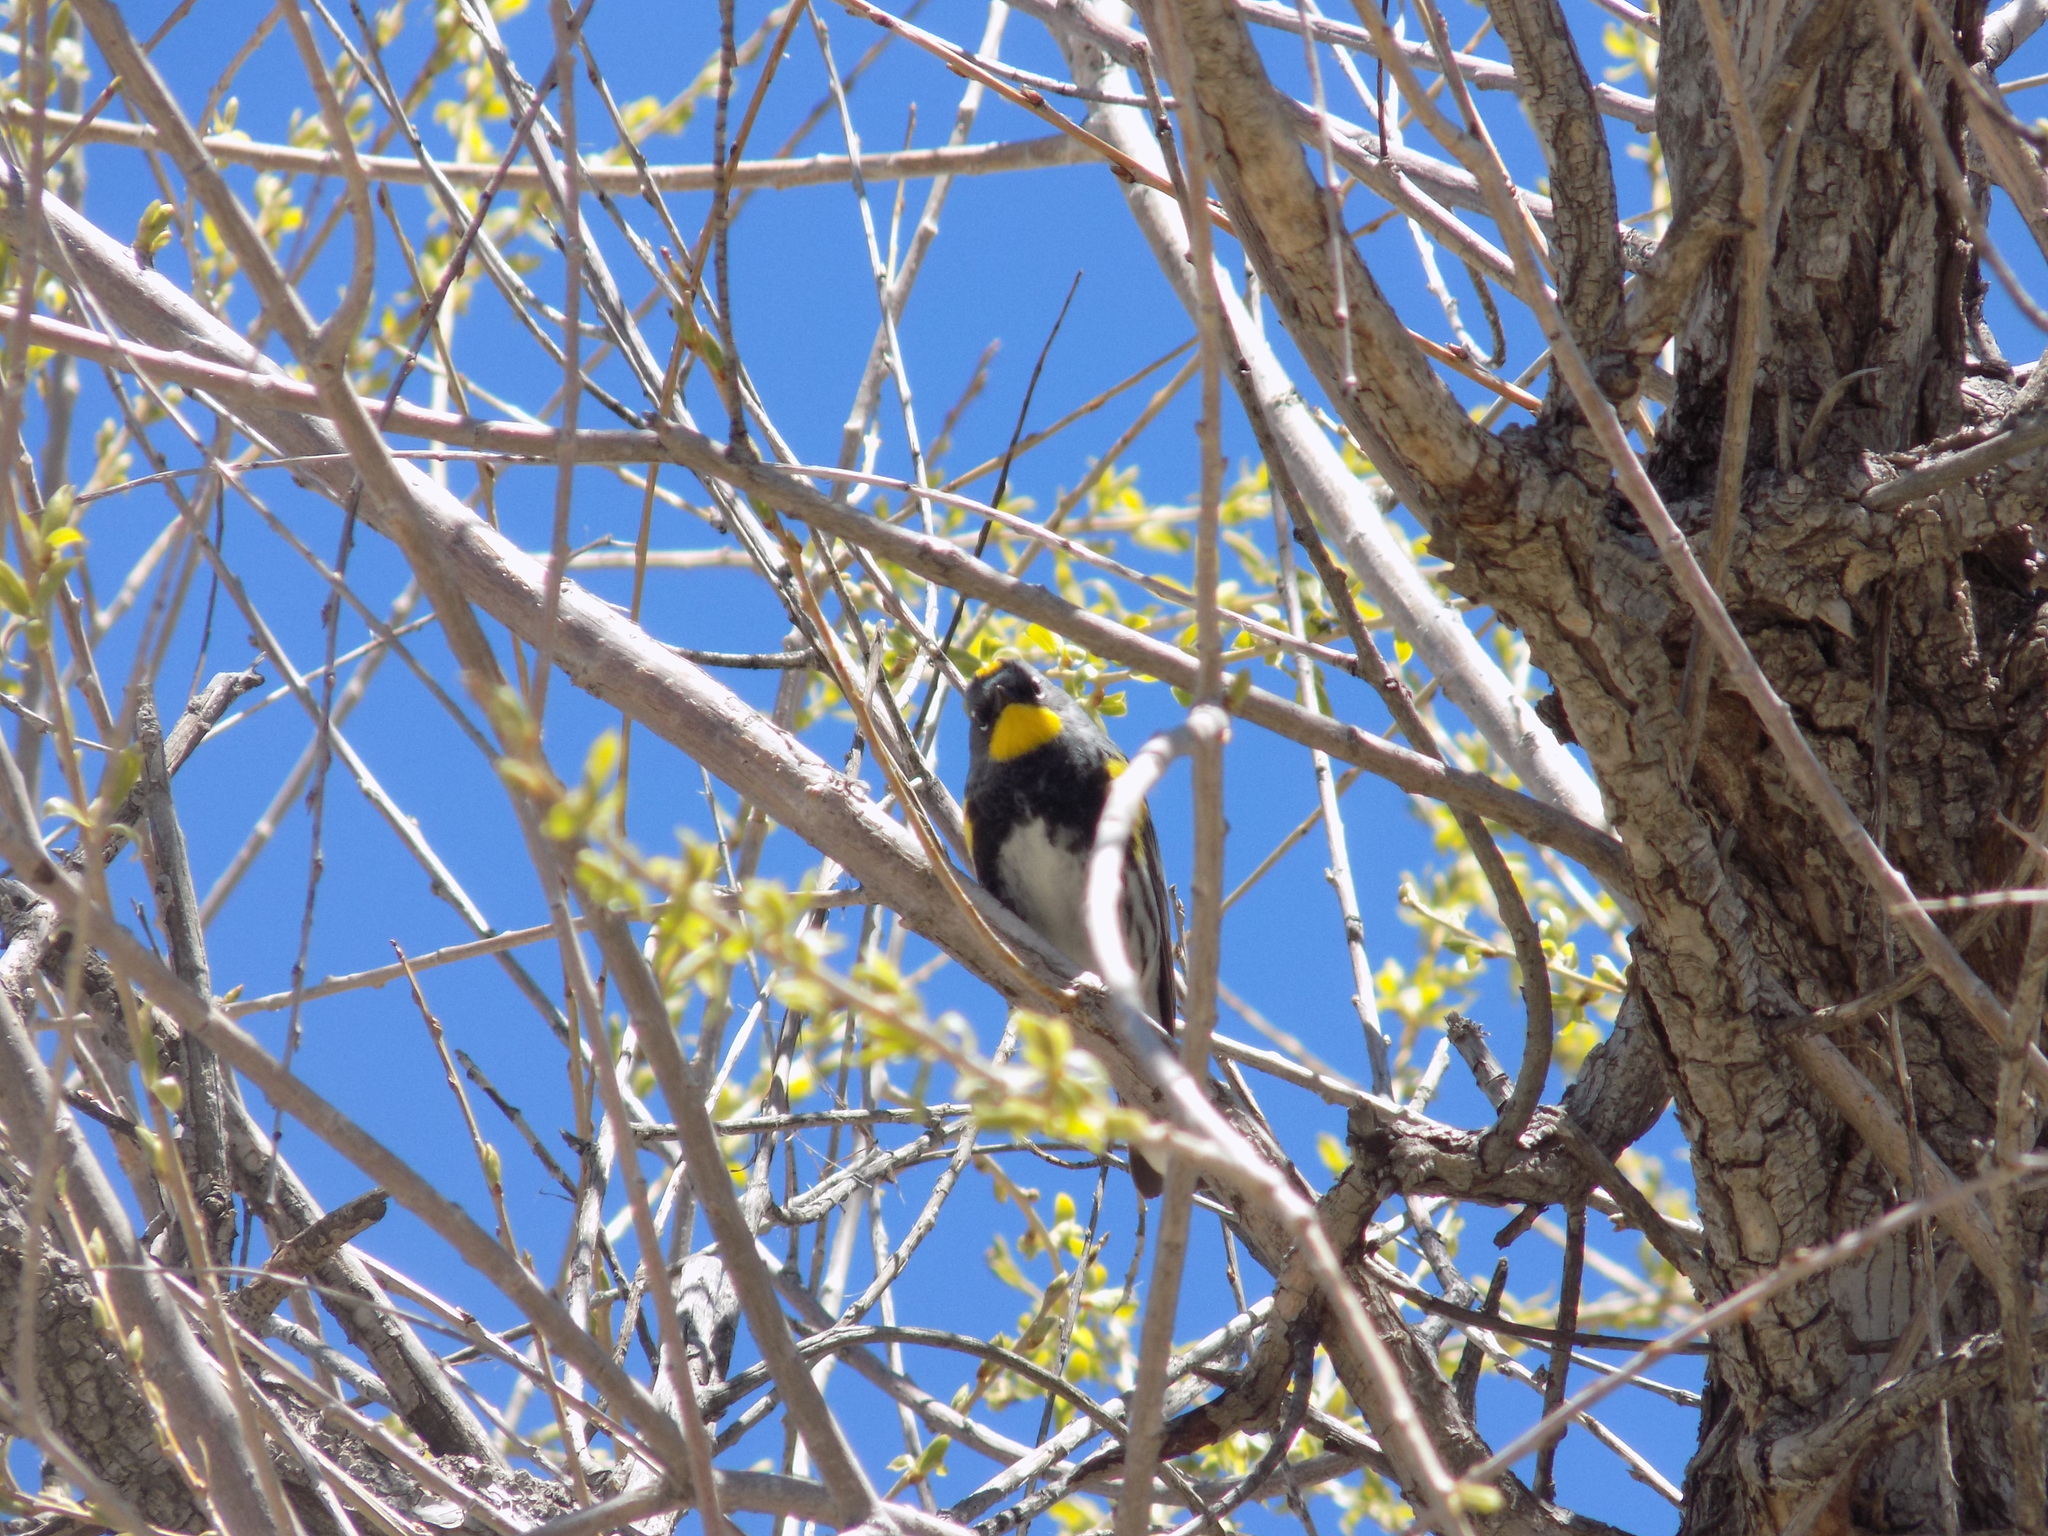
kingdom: Animalia
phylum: Chordata
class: Aves
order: Passeriformes
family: Parulidae
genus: Setophaga
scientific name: Setophaga auduboni
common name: Audubon's warbler
